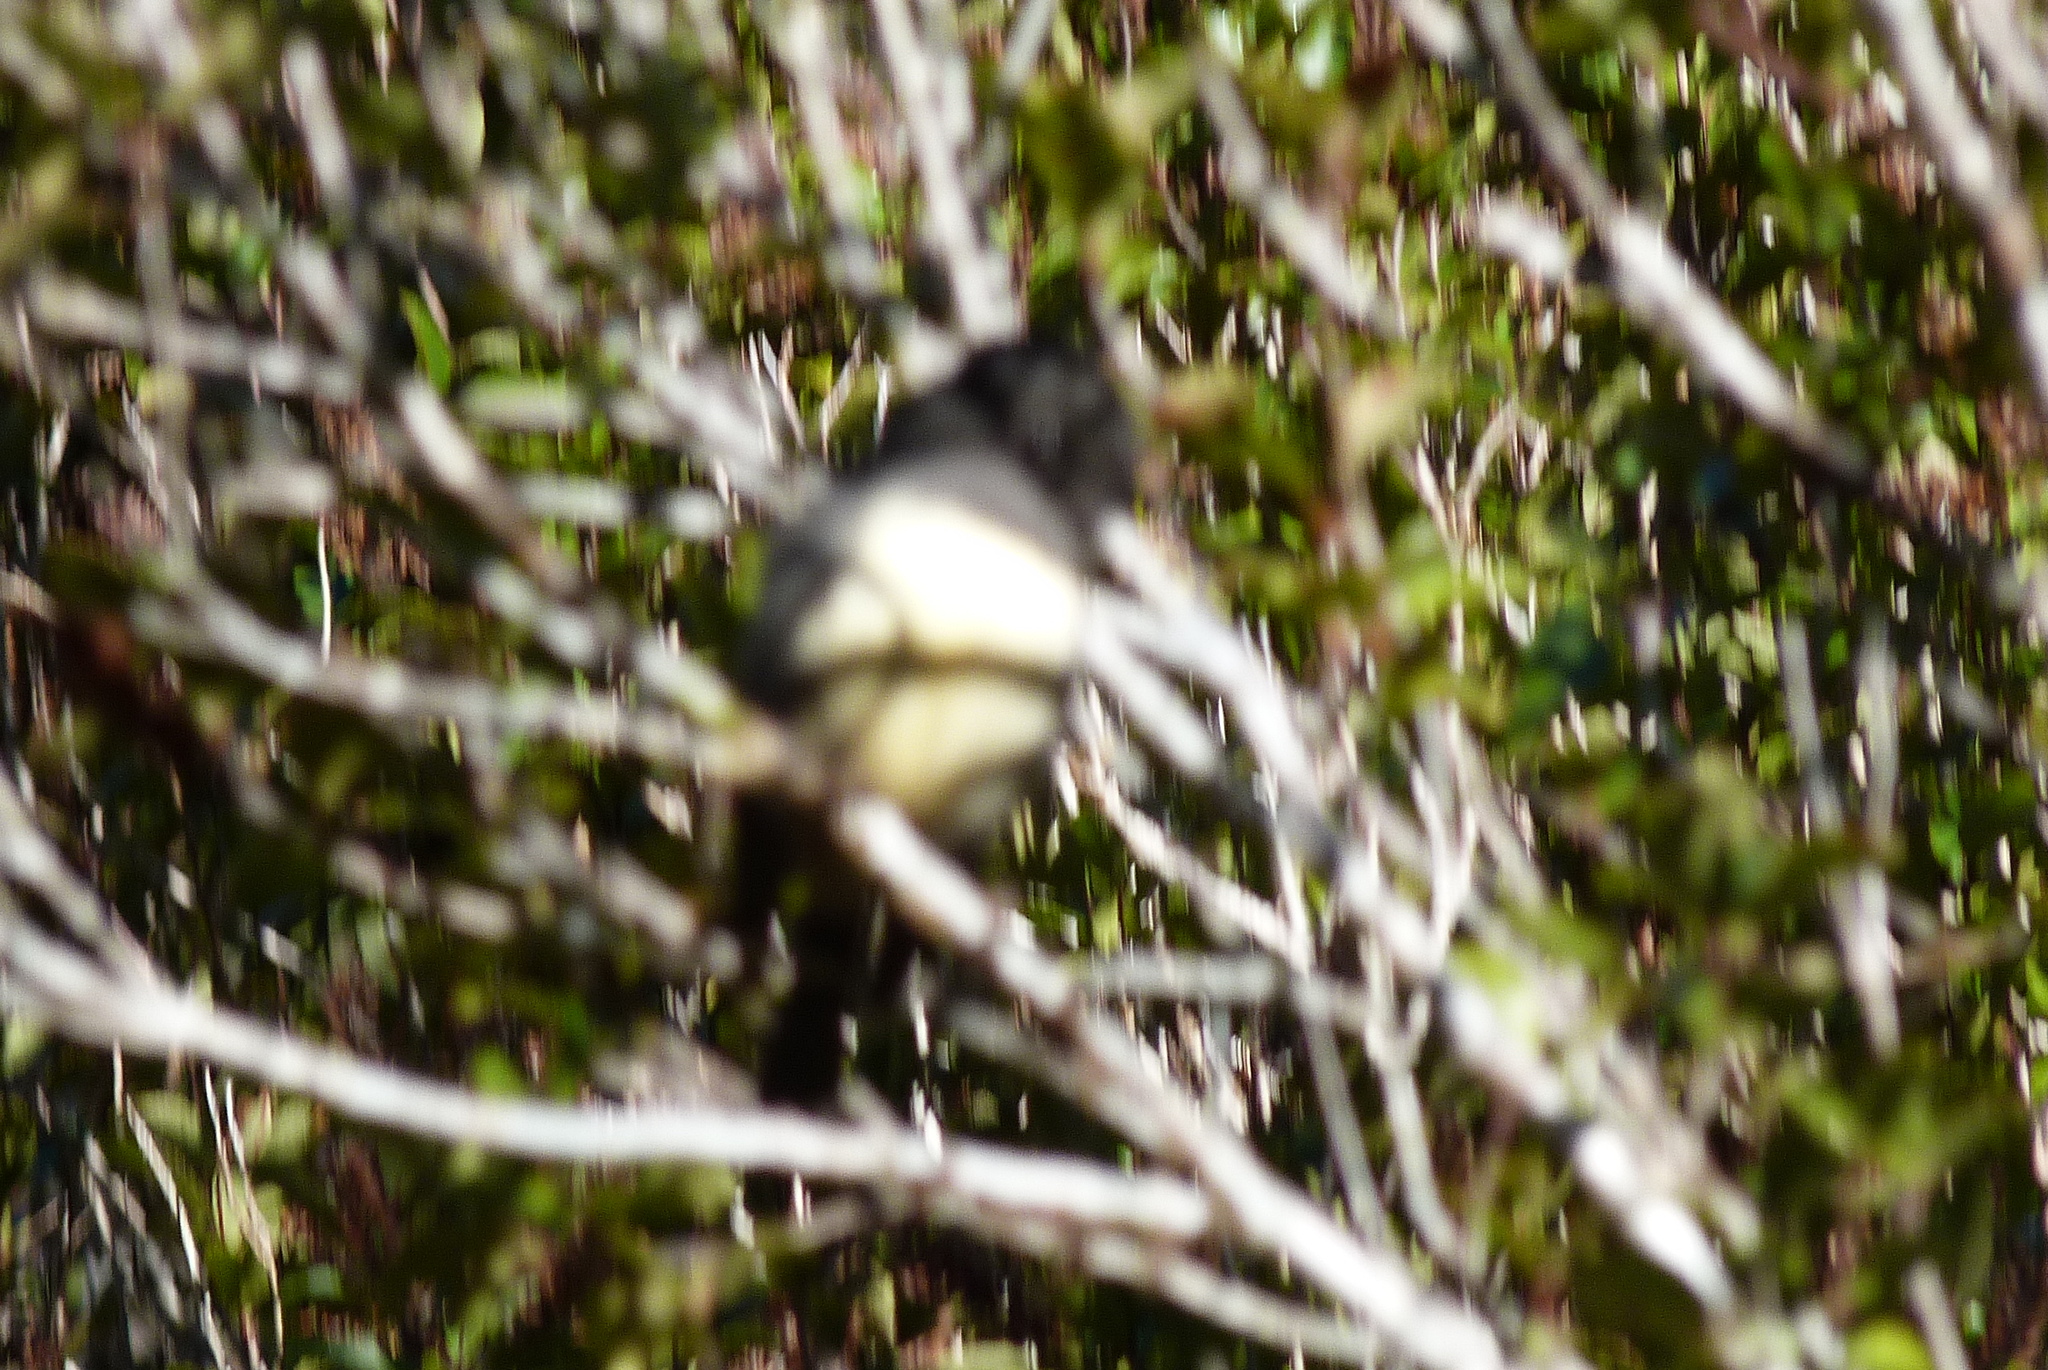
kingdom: Animalia
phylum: Chordata
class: Aves
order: Passeriformes
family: Petroicidae
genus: Petroica
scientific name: Petroica australis
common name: New zealand robin
